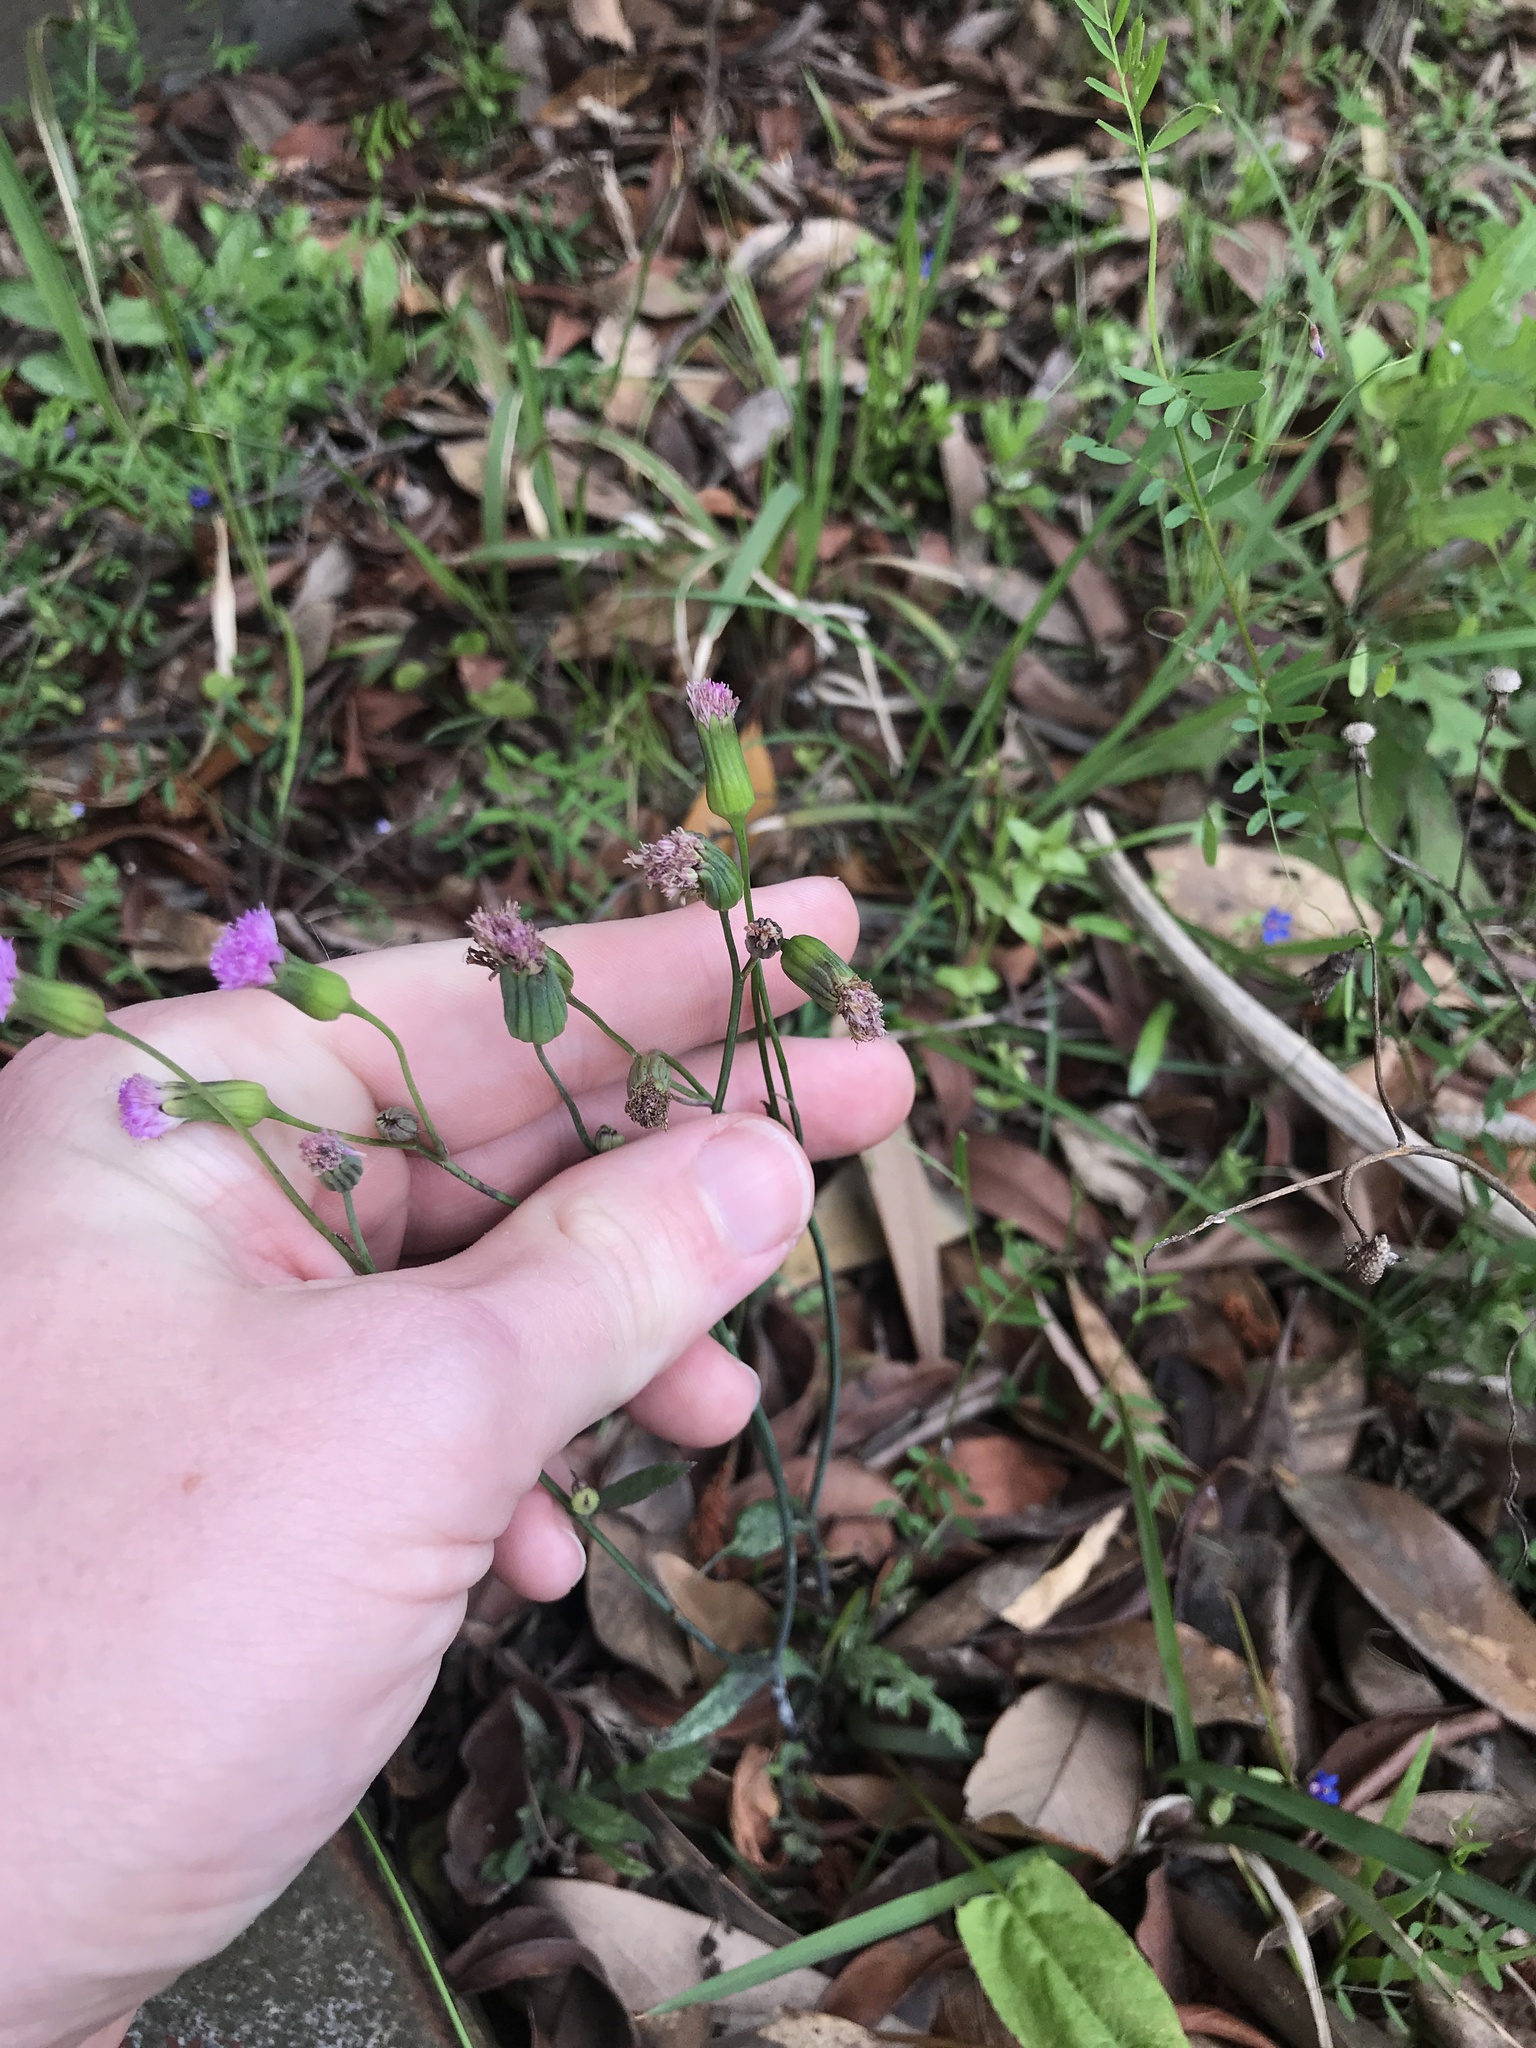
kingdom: Plantae
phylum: Tracheophyta
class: Magnoliopsida
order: Asterales
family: Asteraceae
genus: Emilia
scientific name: Emilia javanica
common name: Tassel-flower
